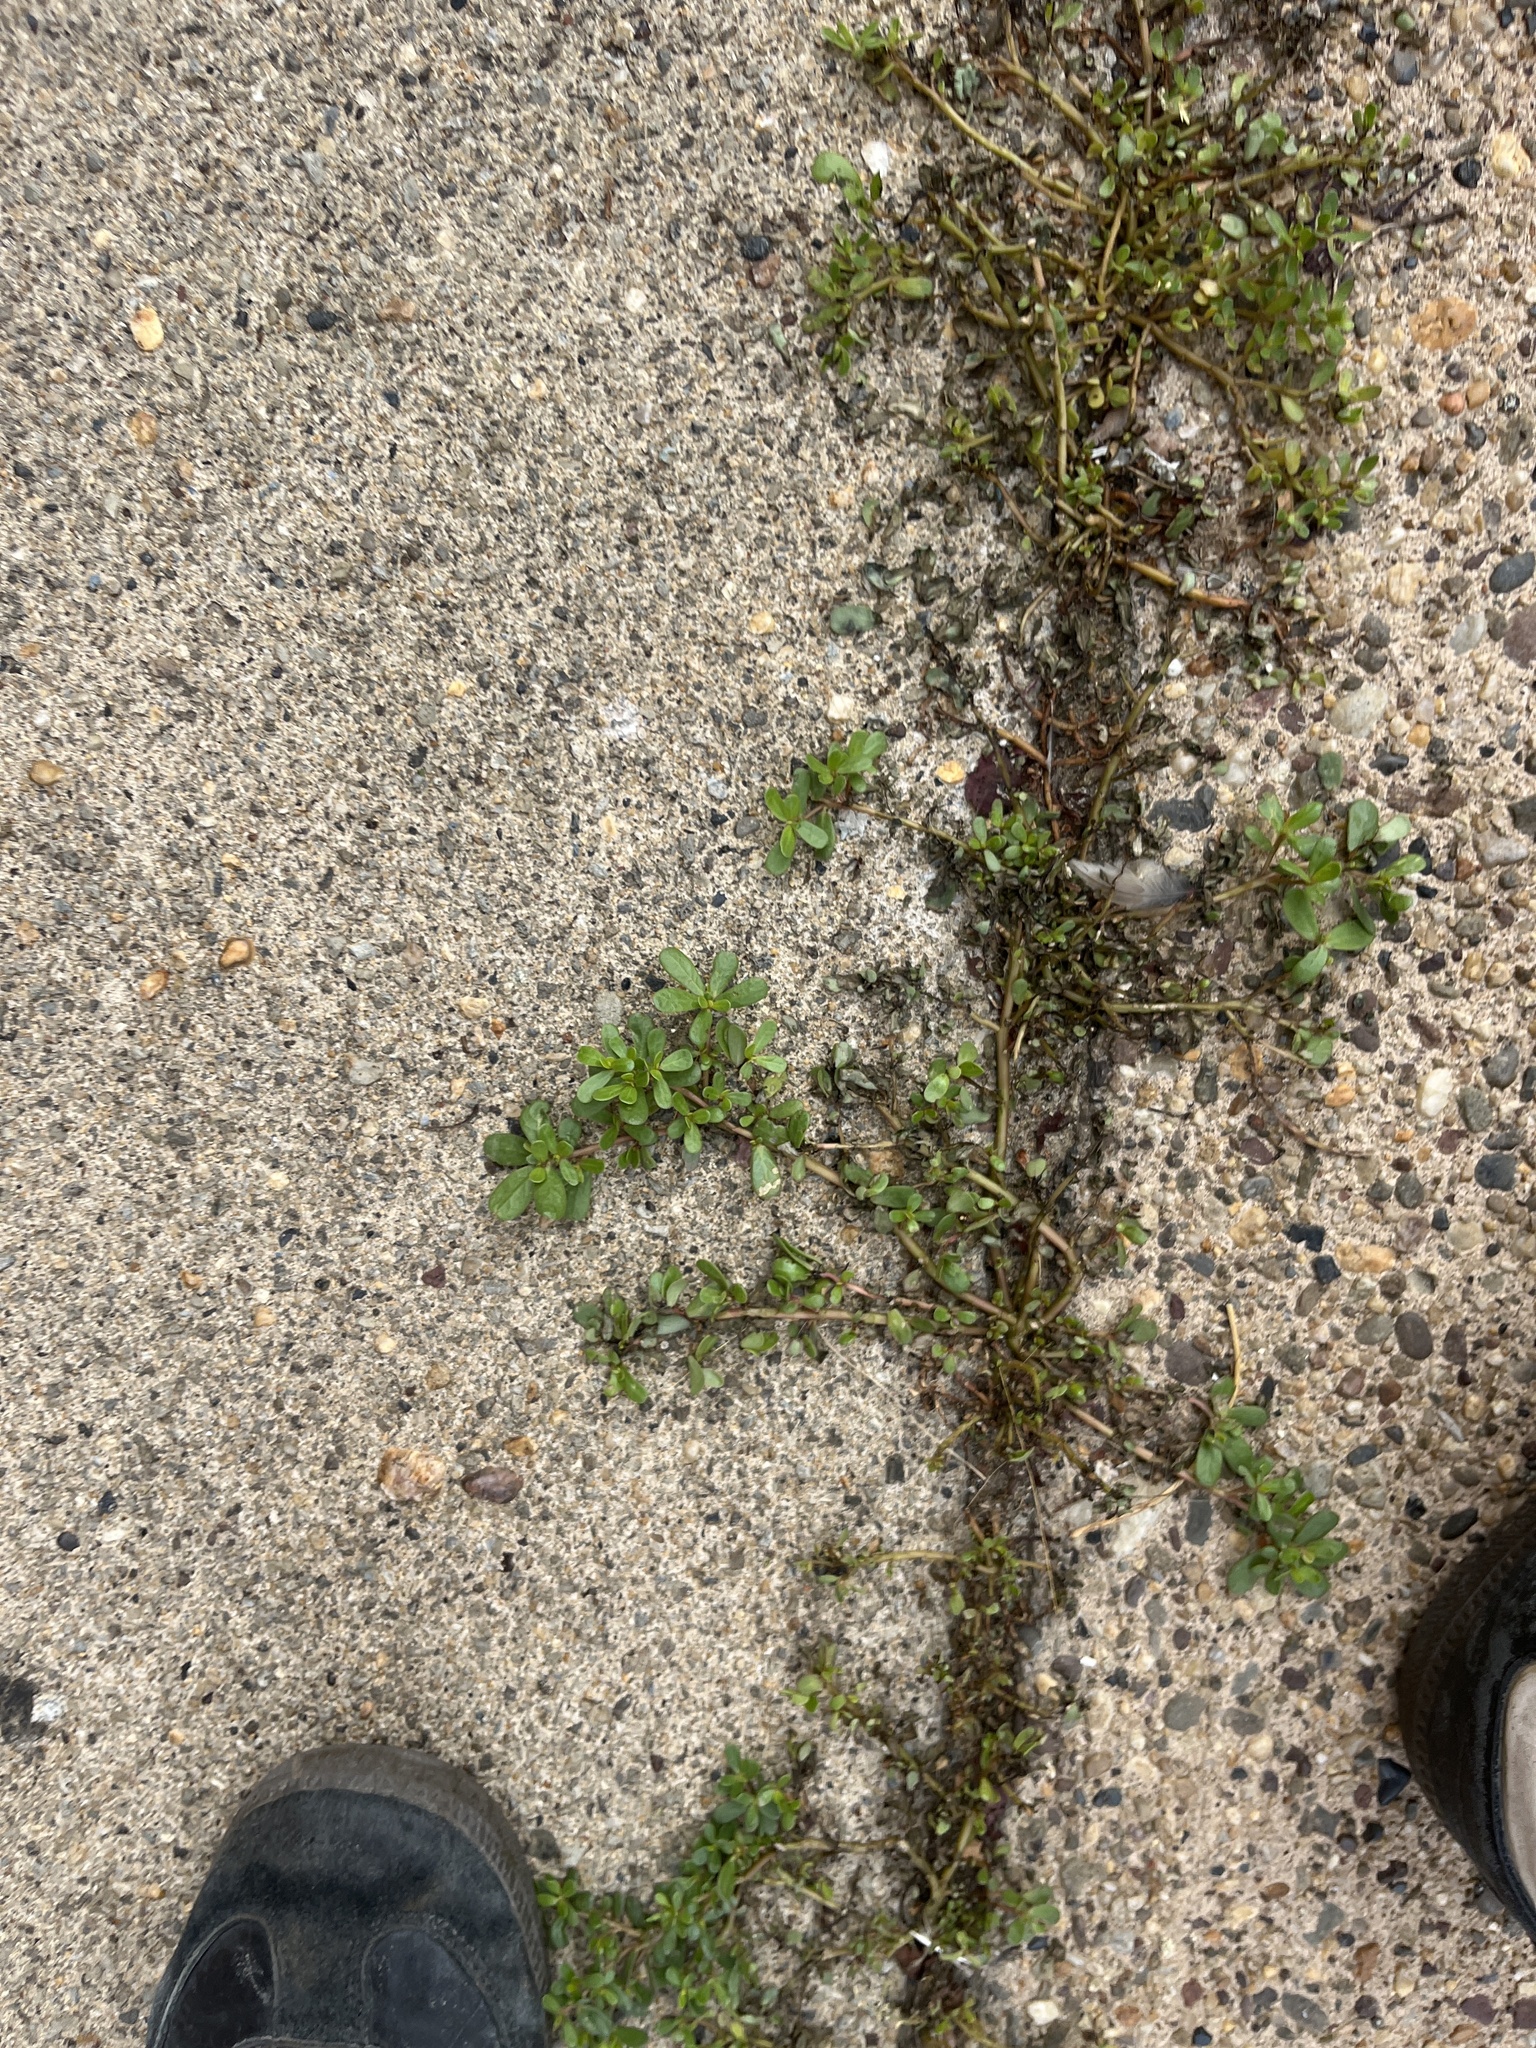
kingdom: Plantae
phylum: Tracheophyta
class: Magnoliopsida
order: Caryophyllales
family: Portulacaceae
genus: Portulaca
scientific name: Portulaca oleracea
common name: Common purslane
